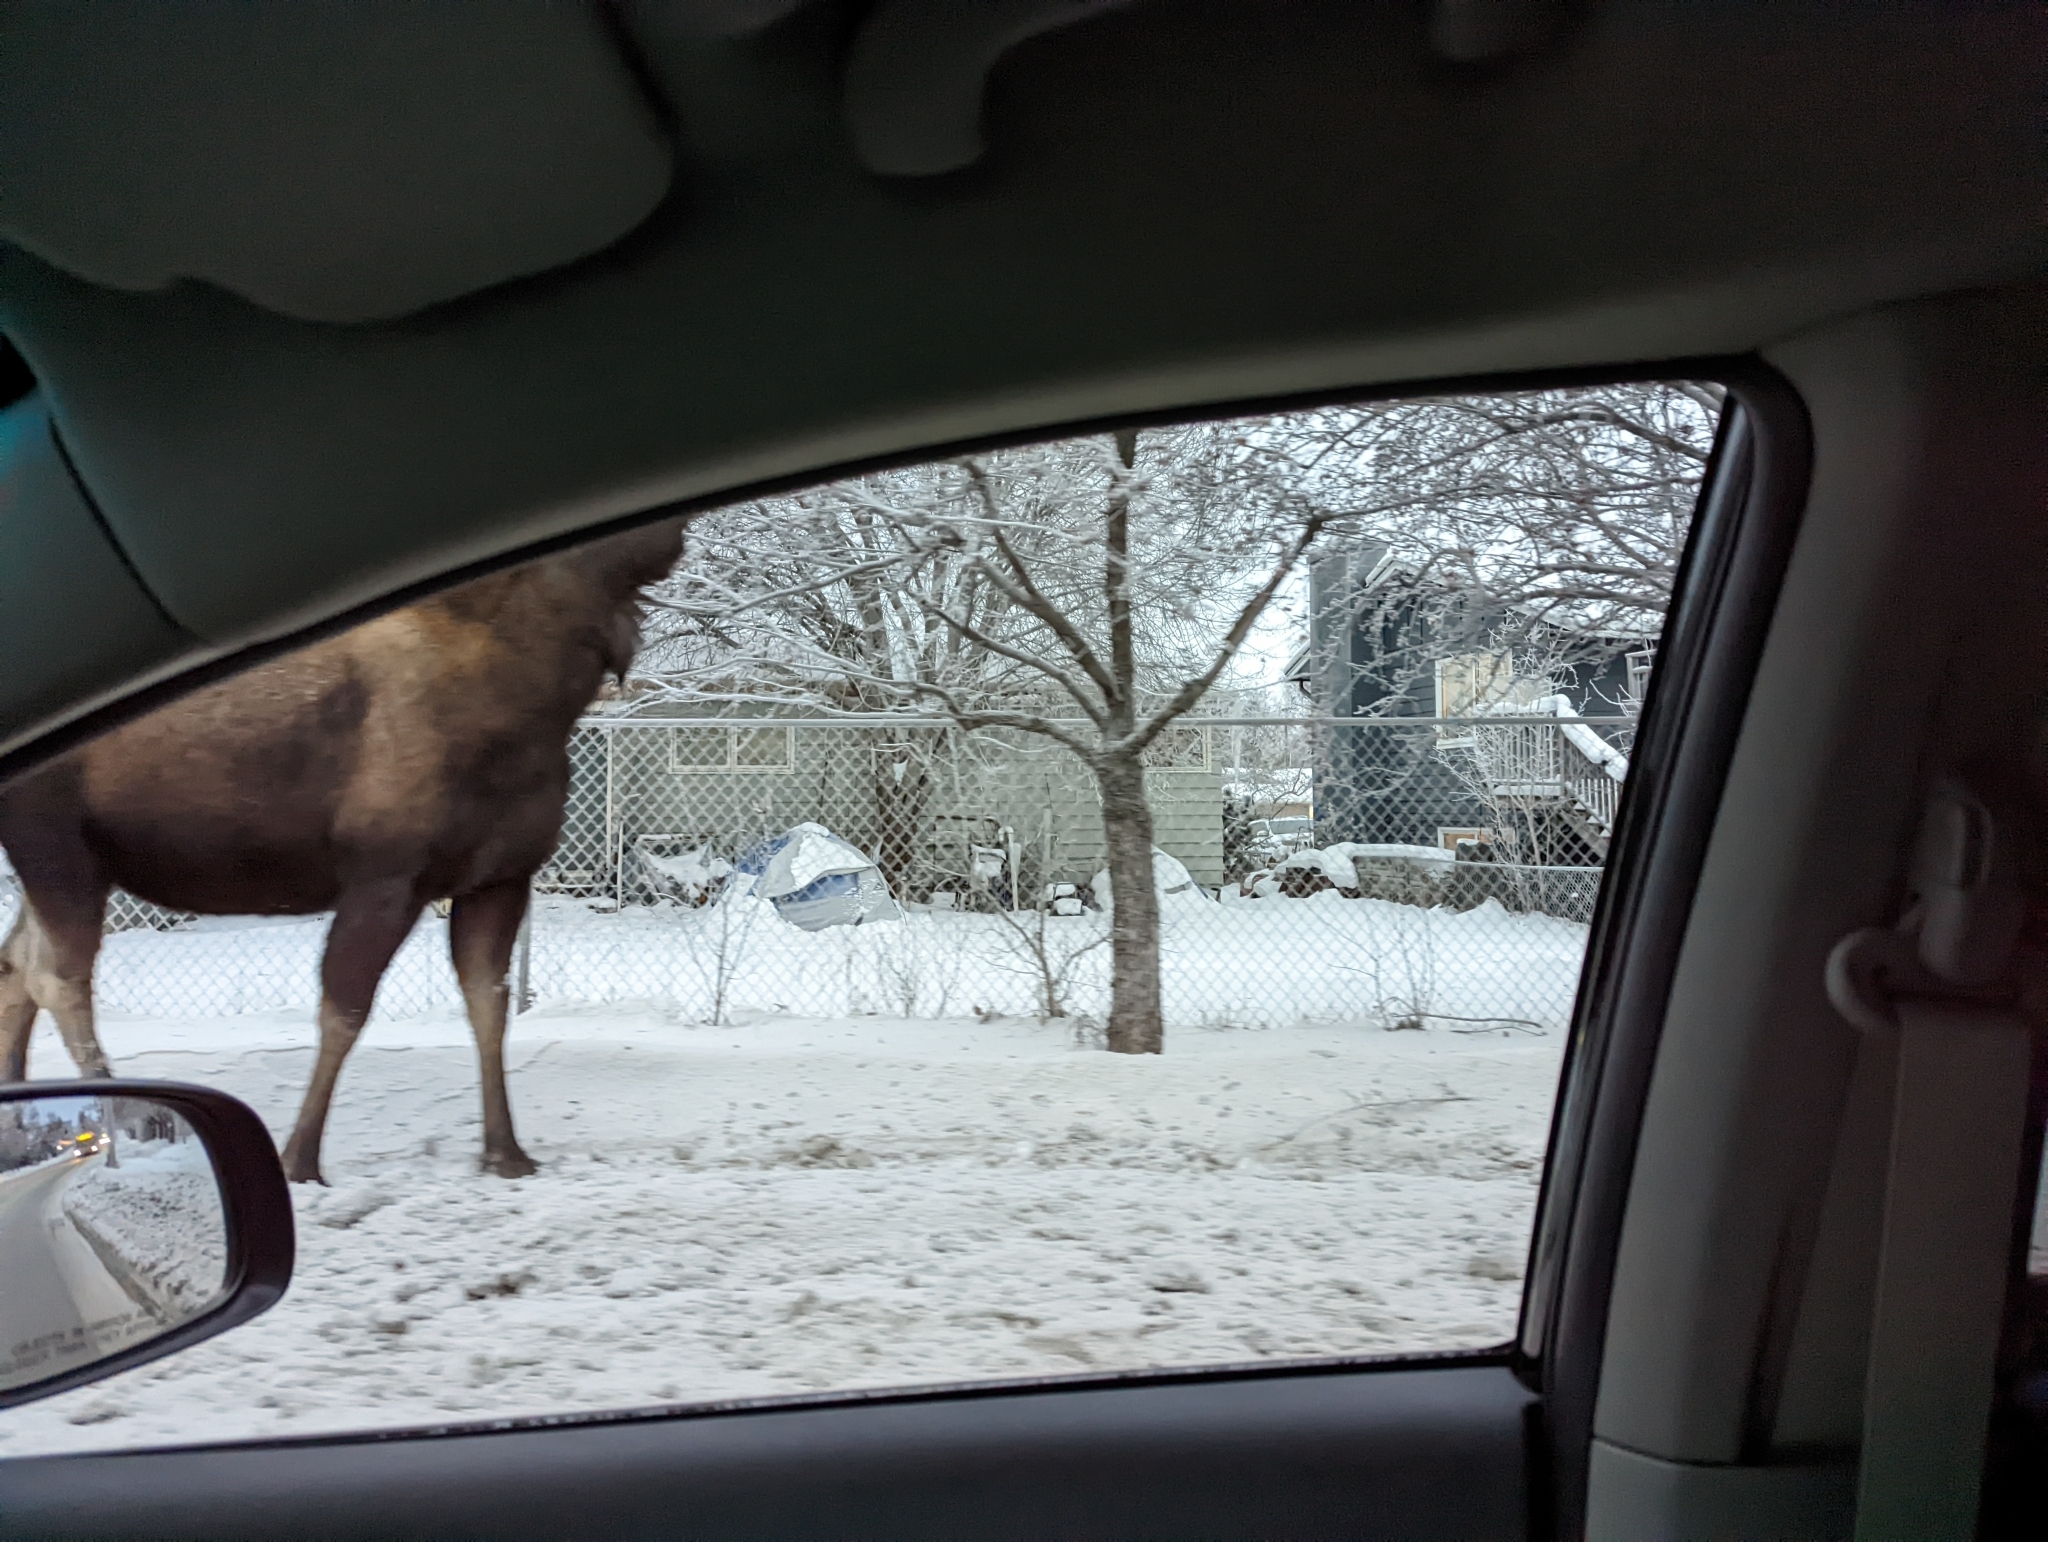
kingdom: Animalia
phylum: Chordata
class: Mammalia
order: Artiodactyla
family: Cervidae
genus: Alces
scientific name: Alces alces
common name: Moose
